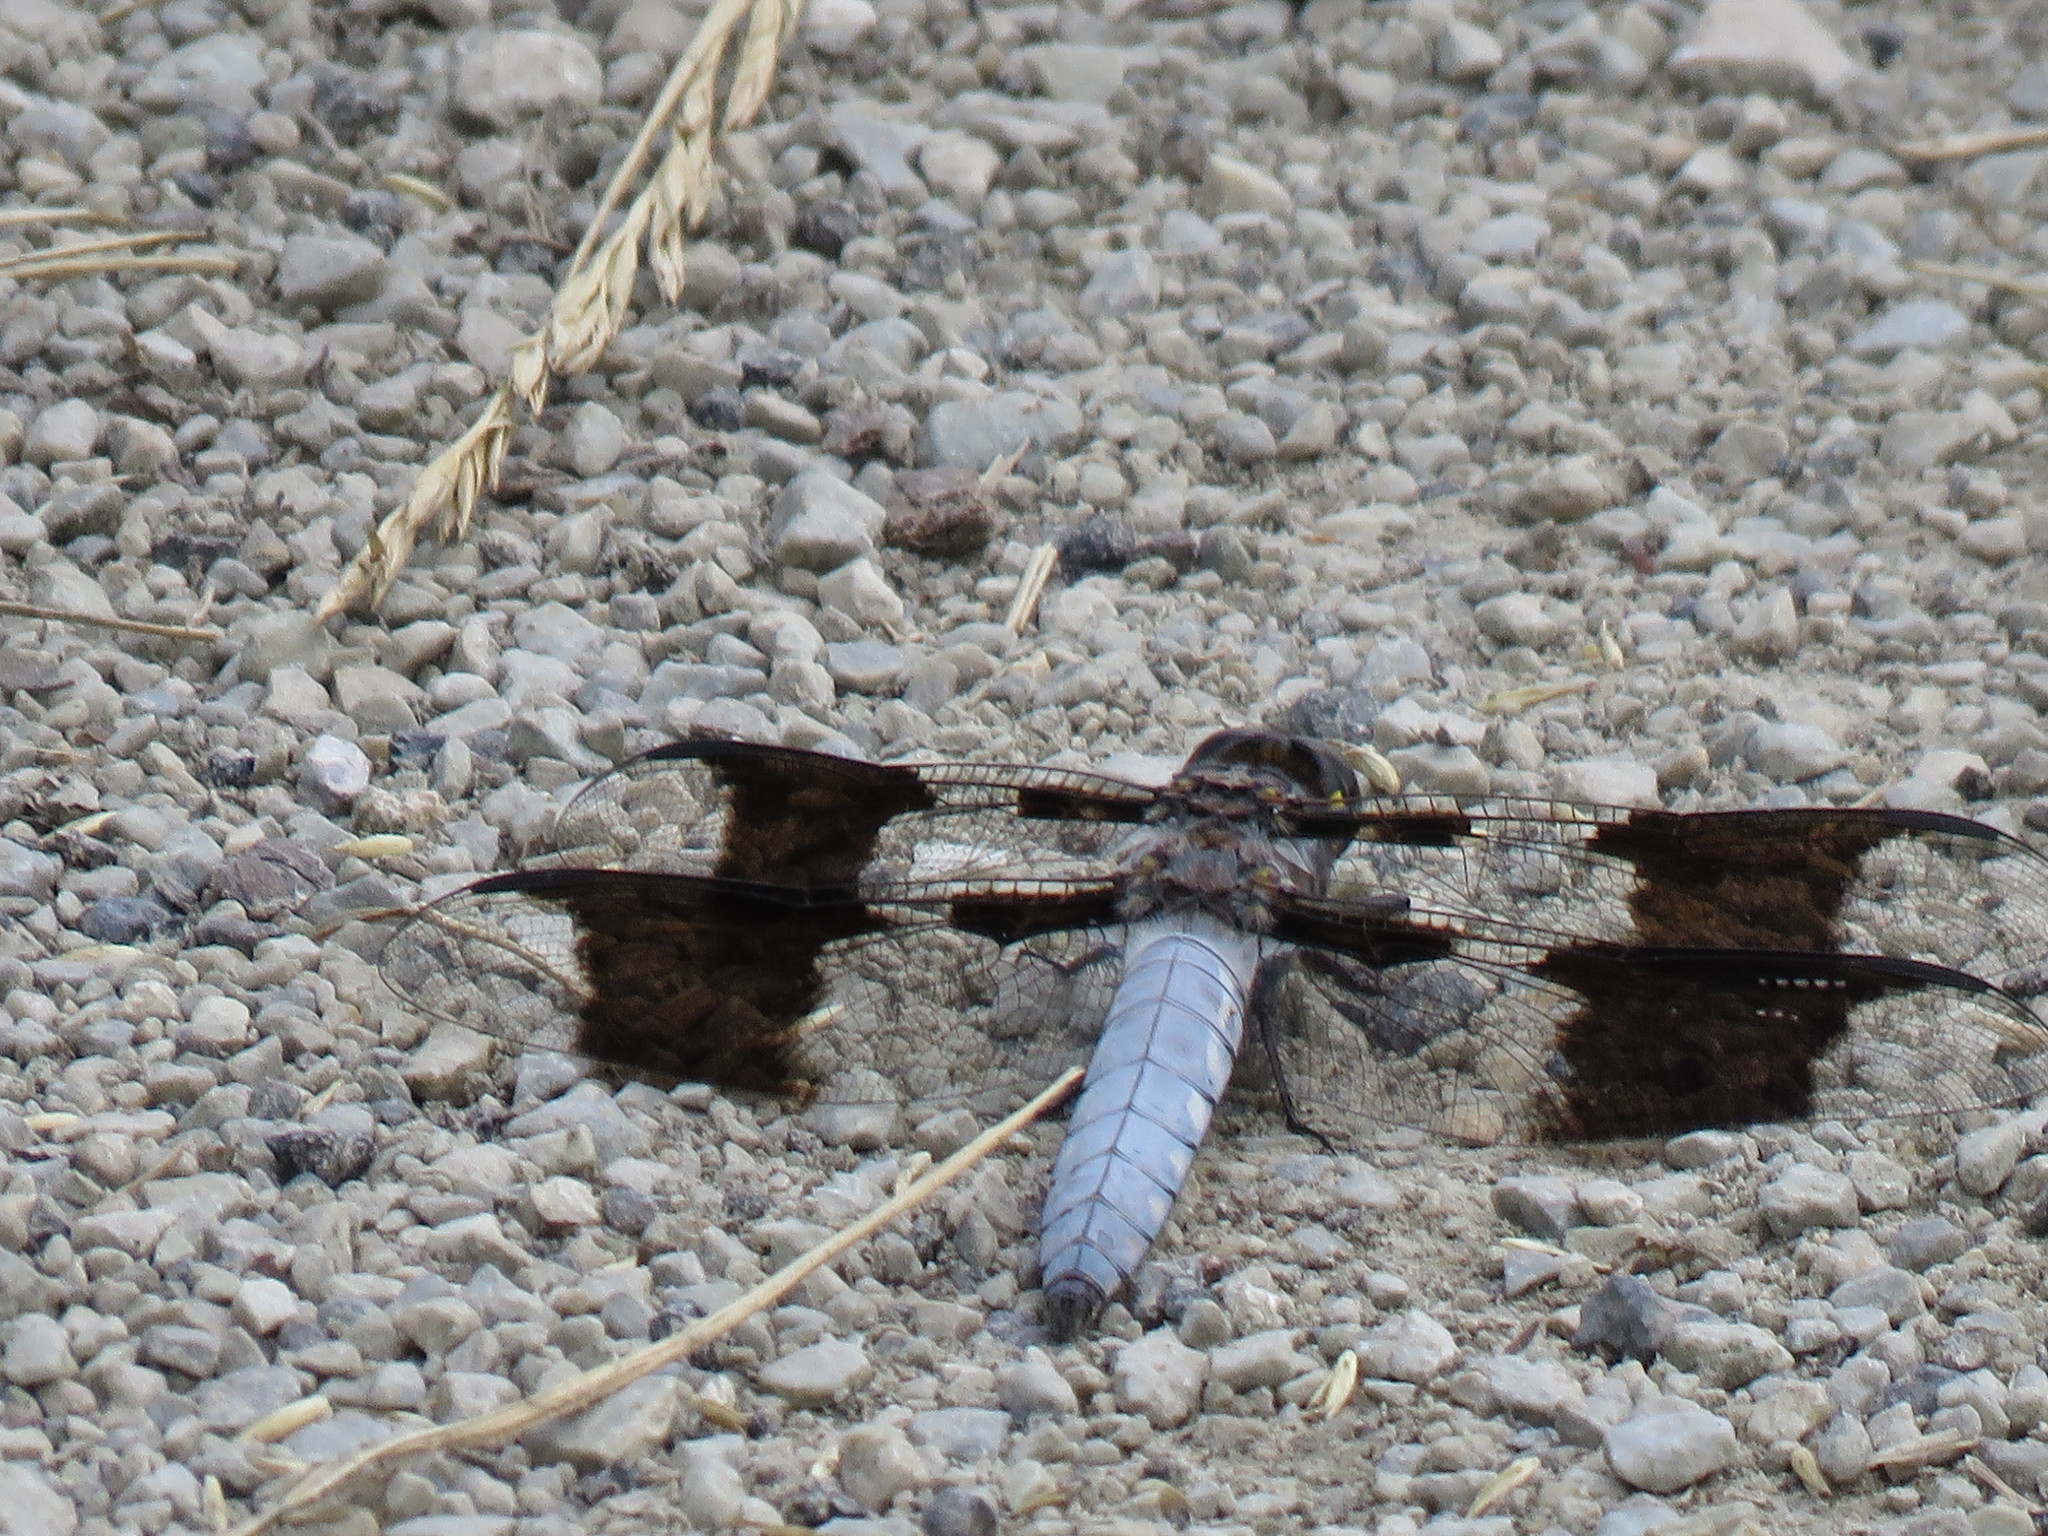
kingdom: Animalia
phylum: Arthropoda
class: Insecta
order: Odonata
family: Libellulidae
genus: Plathemis
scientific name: Plathemis lydia
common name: Common whitetail
